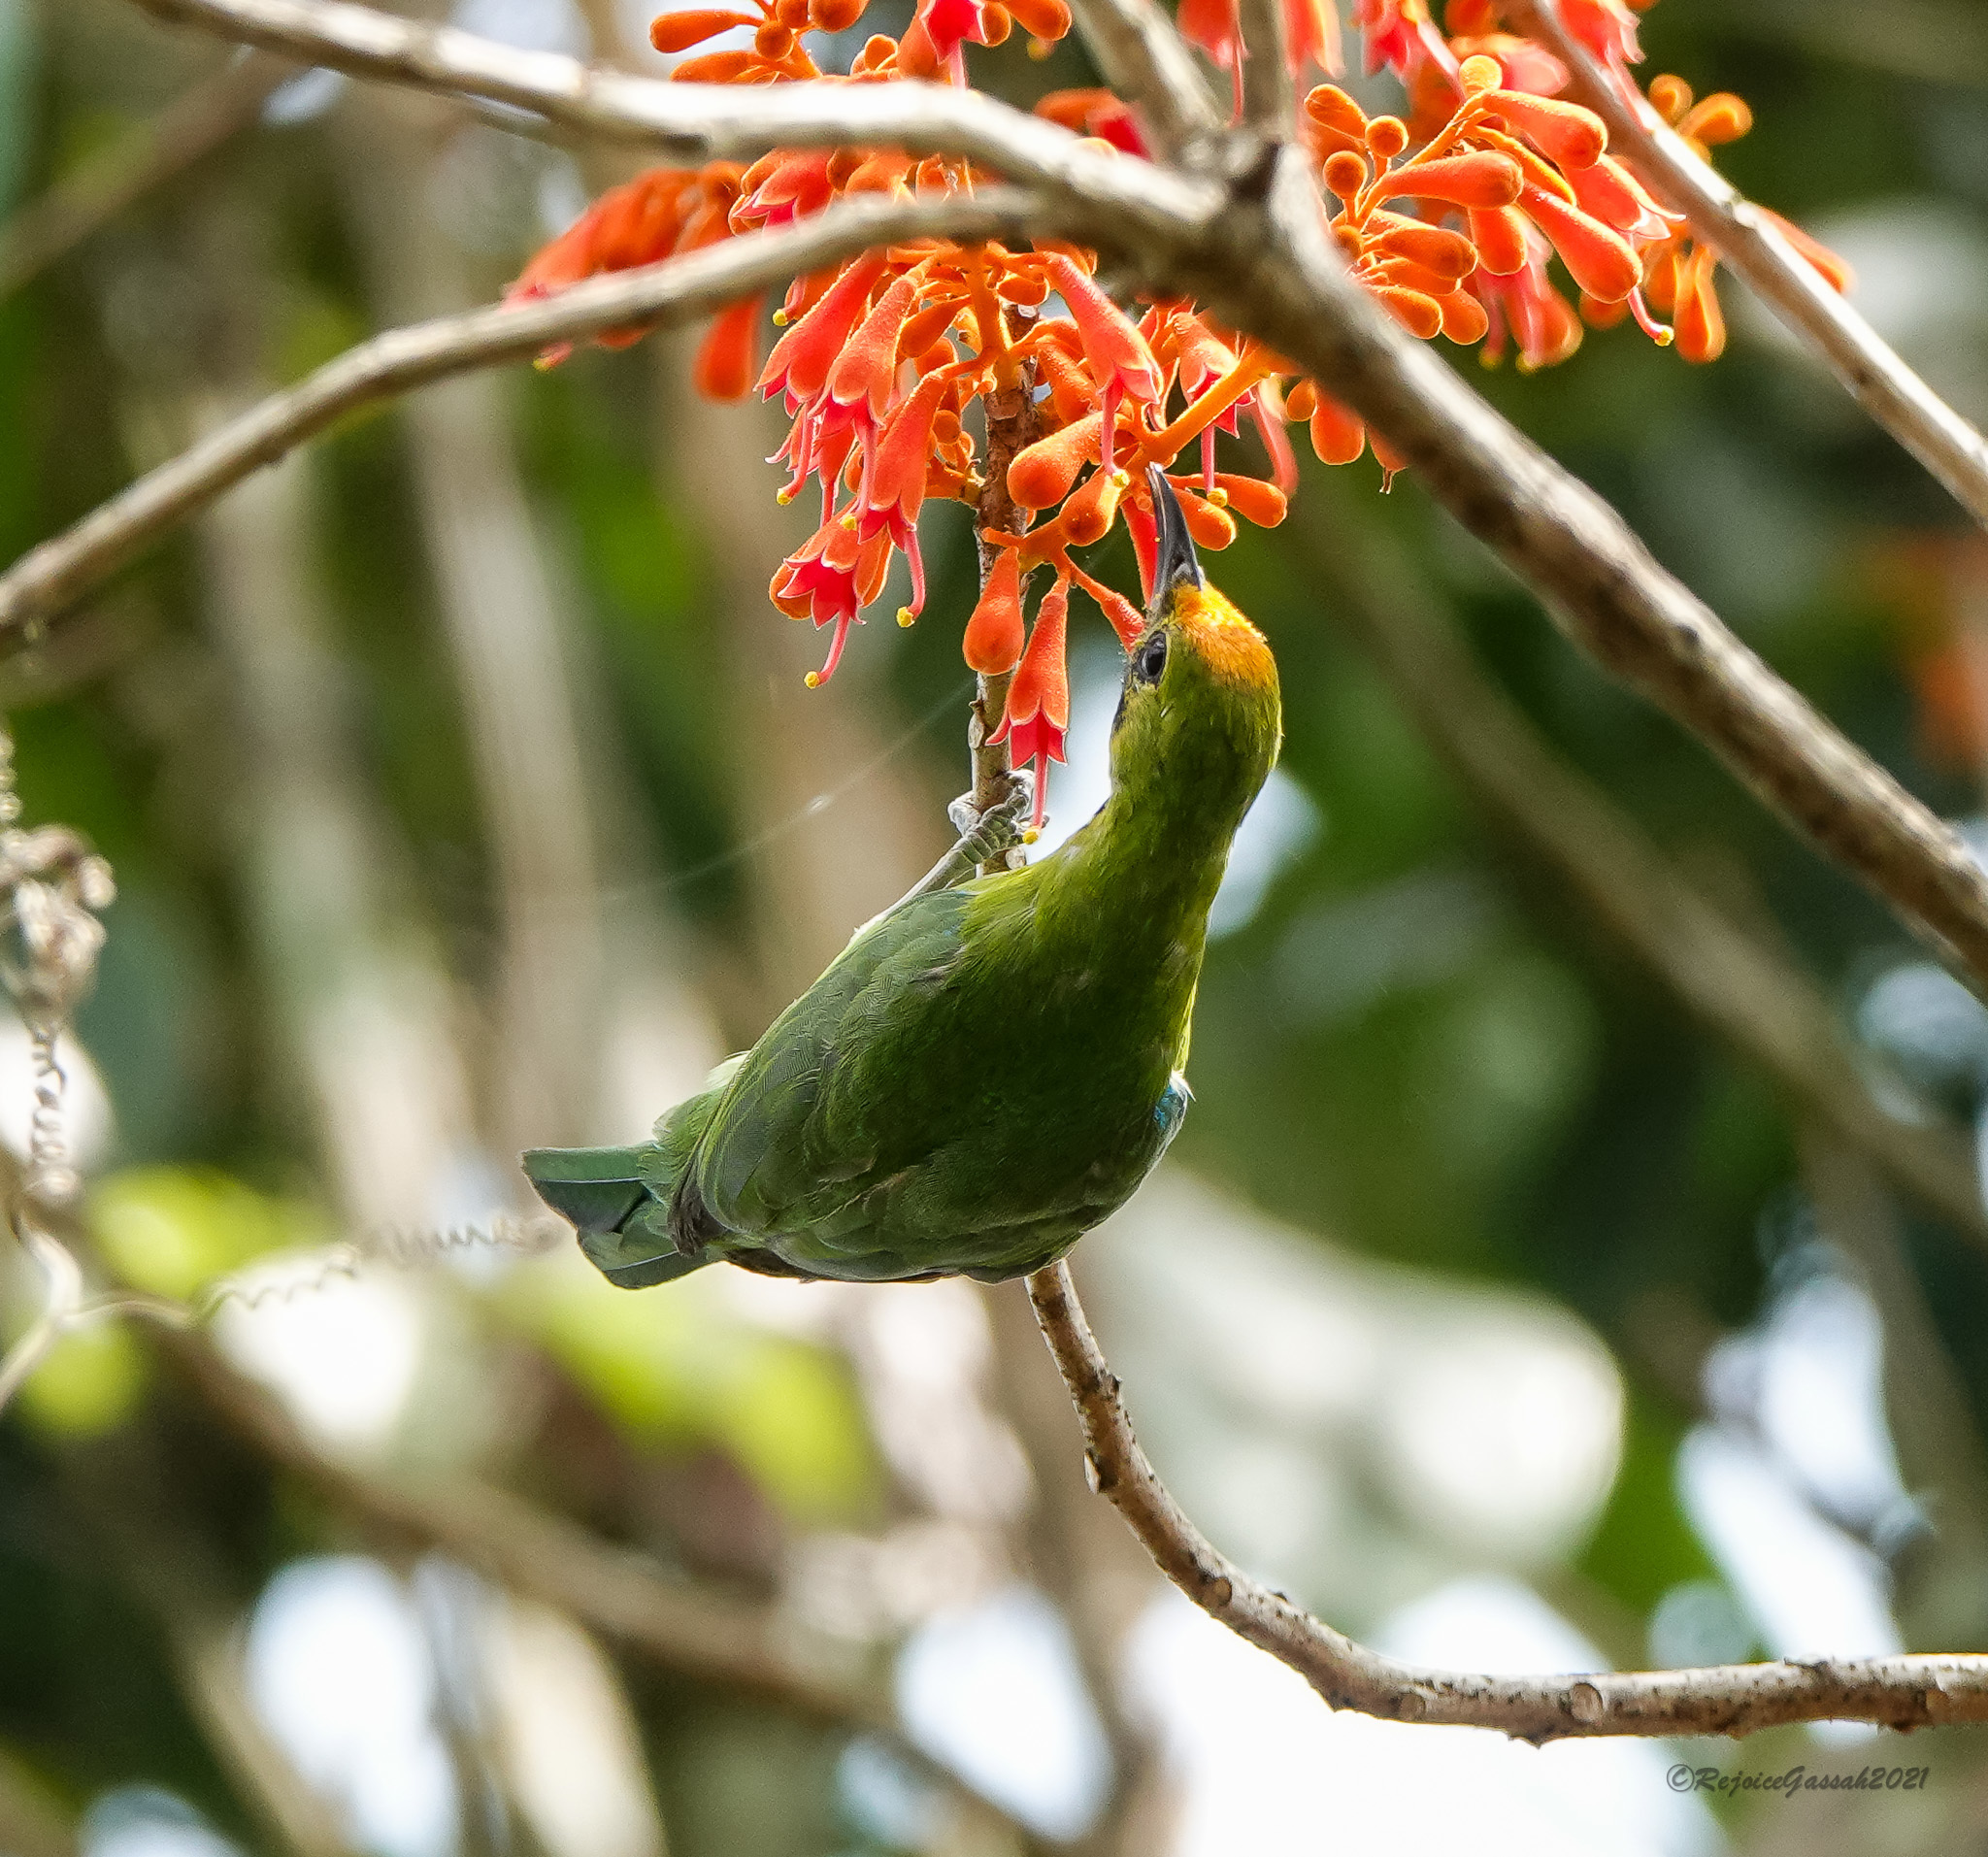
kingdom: Animalia
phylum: Chordata
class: Aves
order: Passeriformes
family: Chloropseidae
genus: Chloropsis
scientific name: Chloropsis aurifrons
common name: Golden-fronted leafbird
